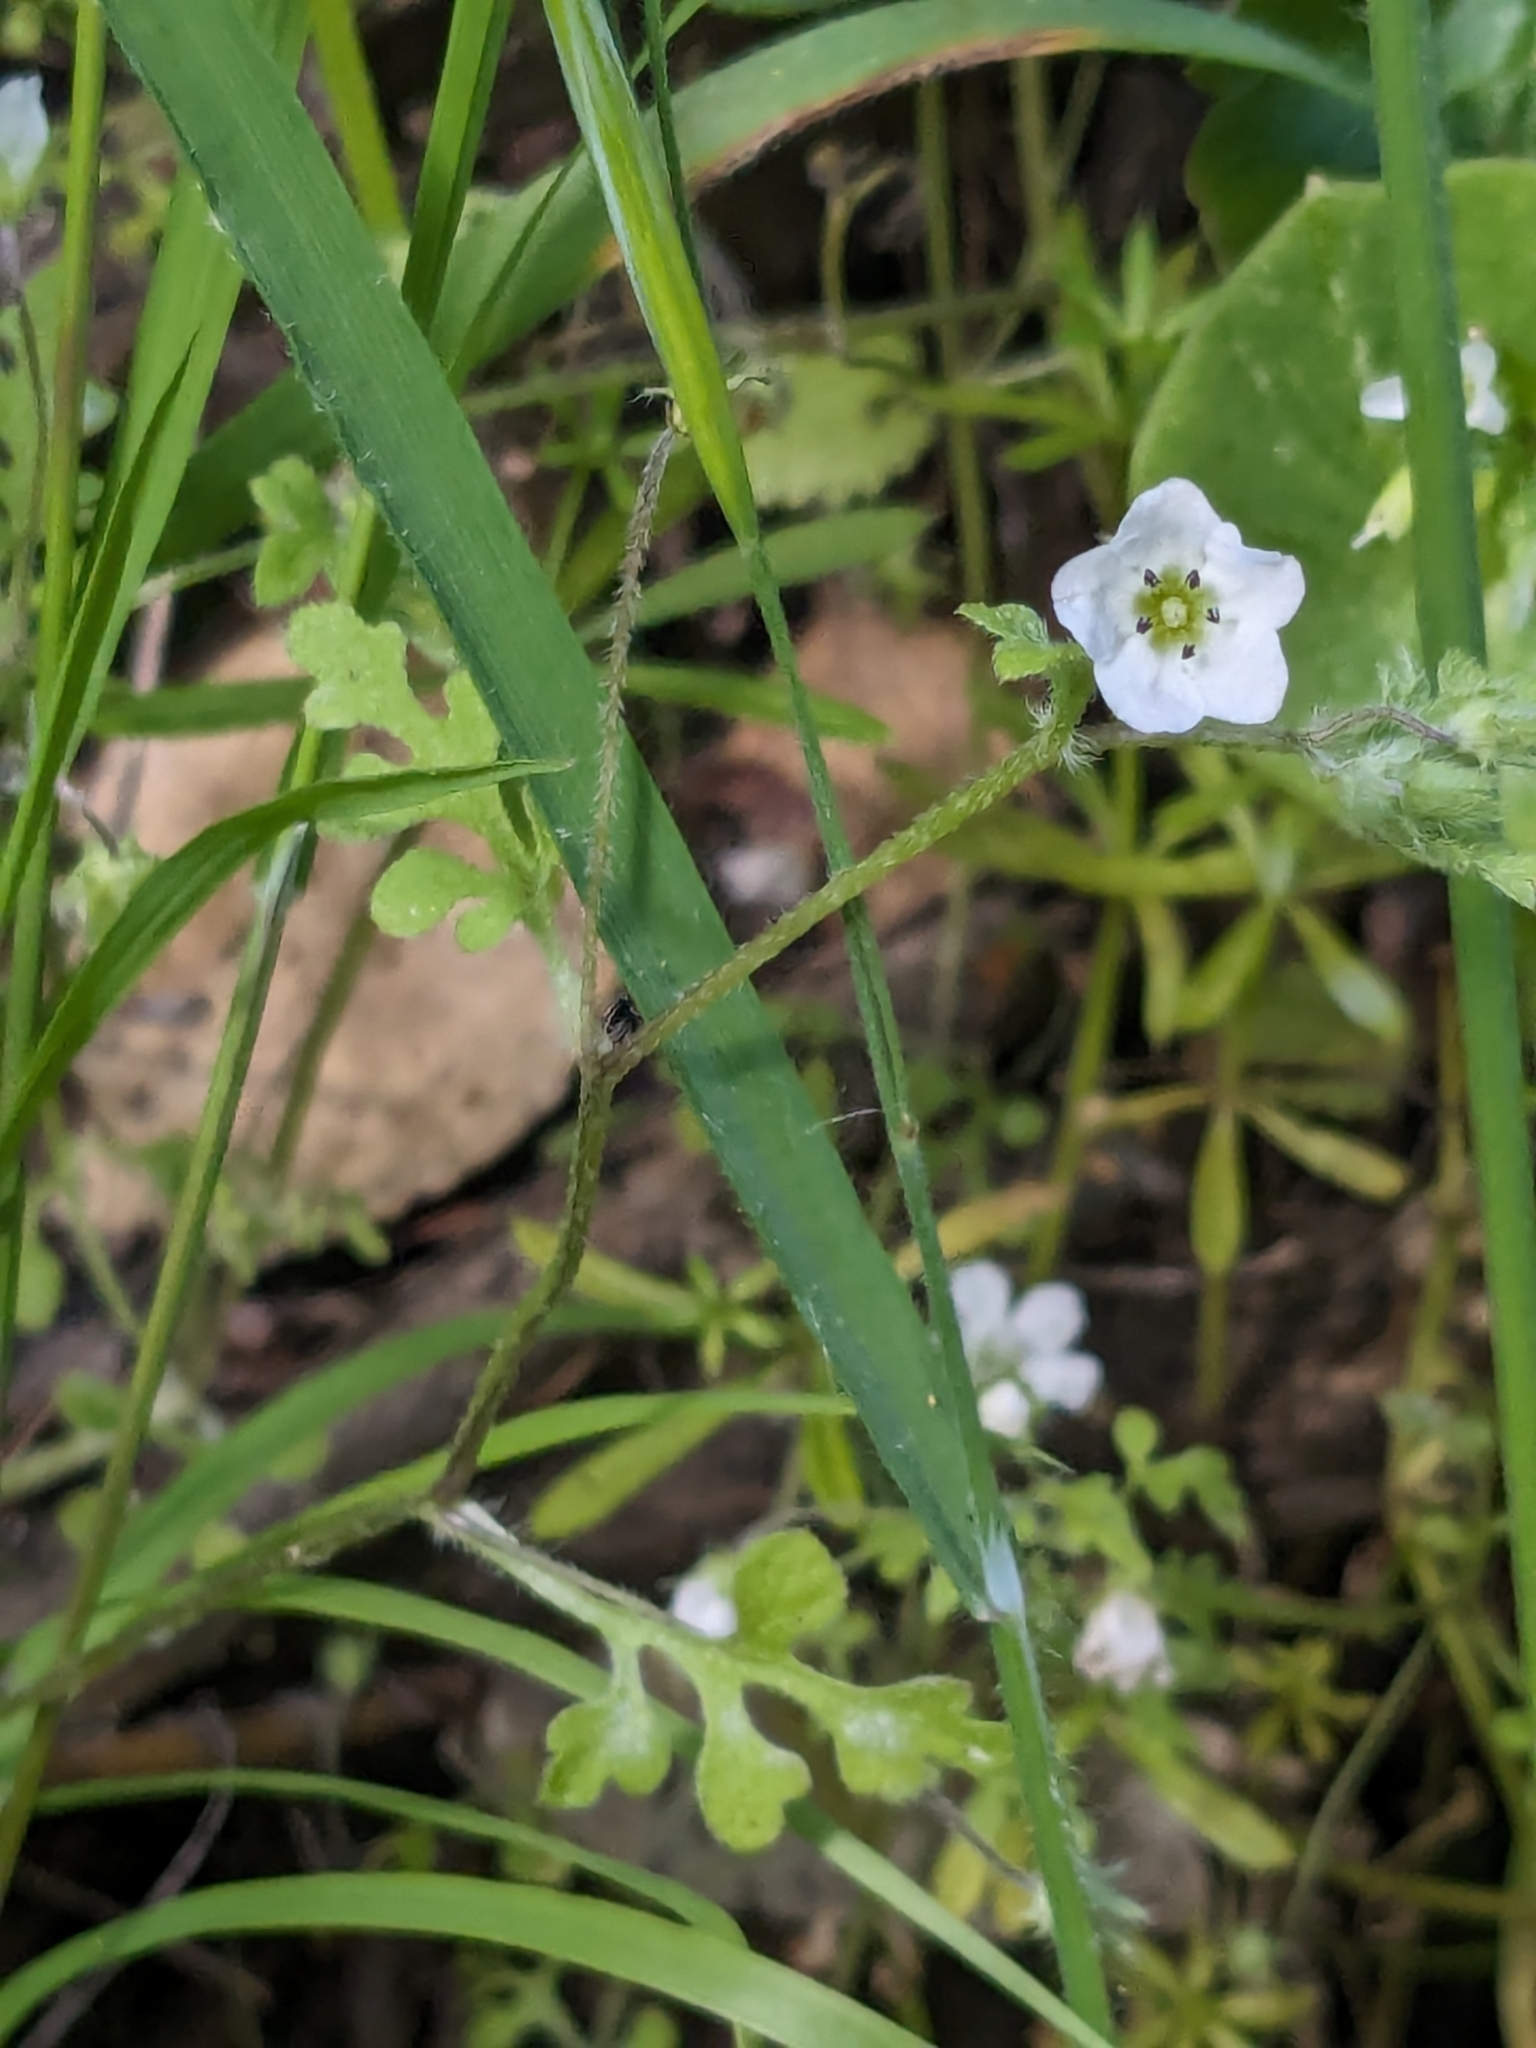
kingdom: Plantae
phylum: Tracheophyta
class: Magnoliopsida
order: Boraginales
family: Hydrophyllaceae
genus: Nemophila
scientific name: Nemophila heterophylla
